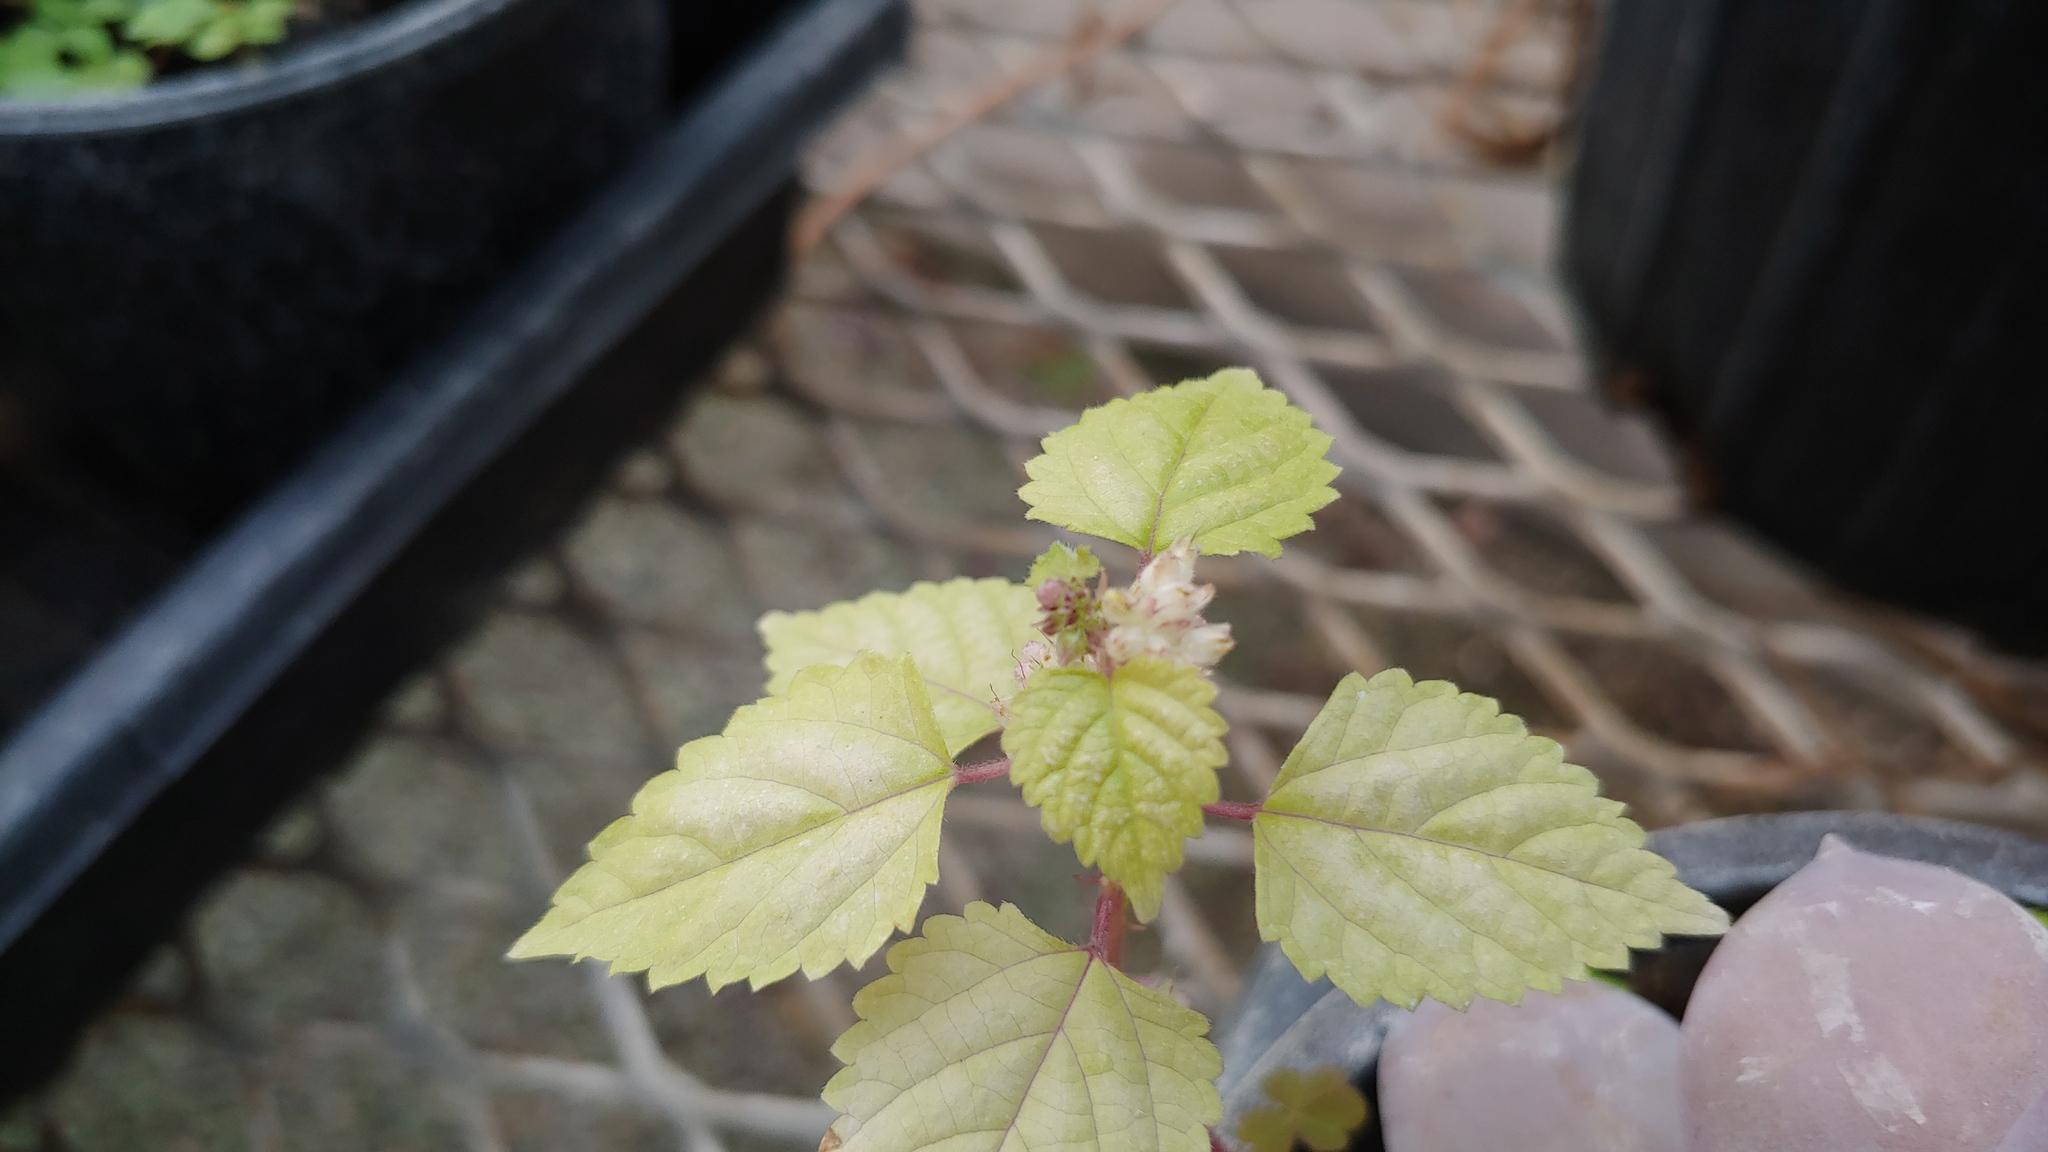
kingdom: Plantae
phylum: Tracheophyta
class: Magnoliopsida
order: Rosales
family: Moraceae
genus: Fatoua
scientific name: Fatoua villosa
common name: Hairy crabweed
